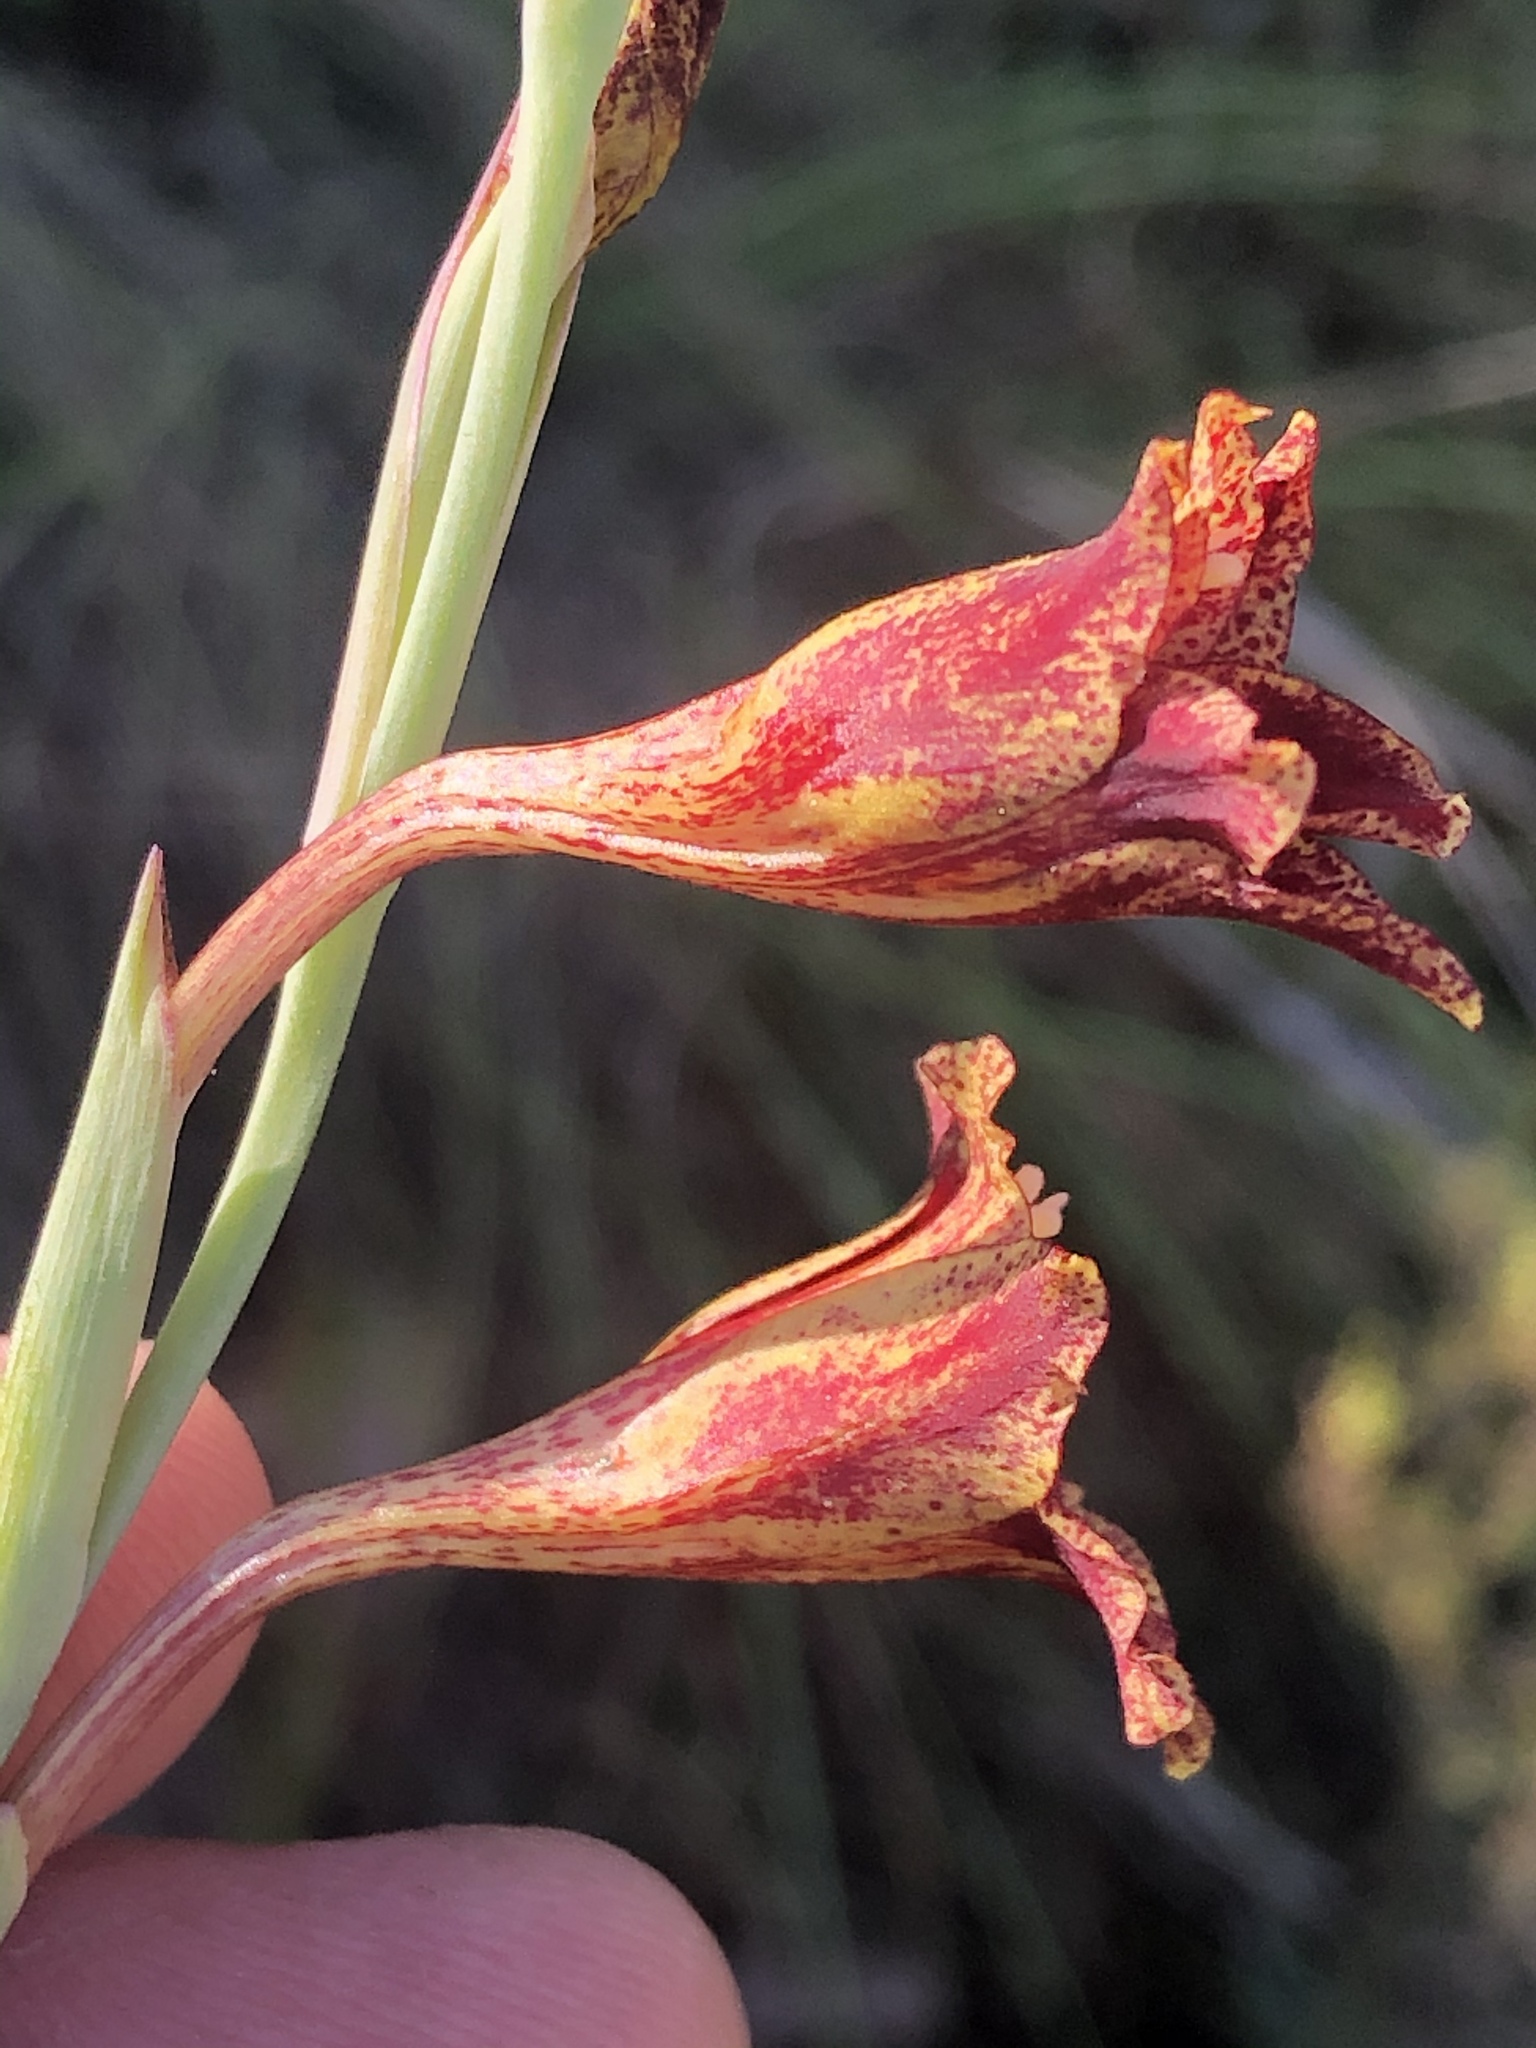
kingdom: Plantae
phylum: Tracheophyta
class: Liliopsida
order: Asparagales
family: Iridaceae
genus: Gladiolus
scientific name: Gladiolus emiliae
